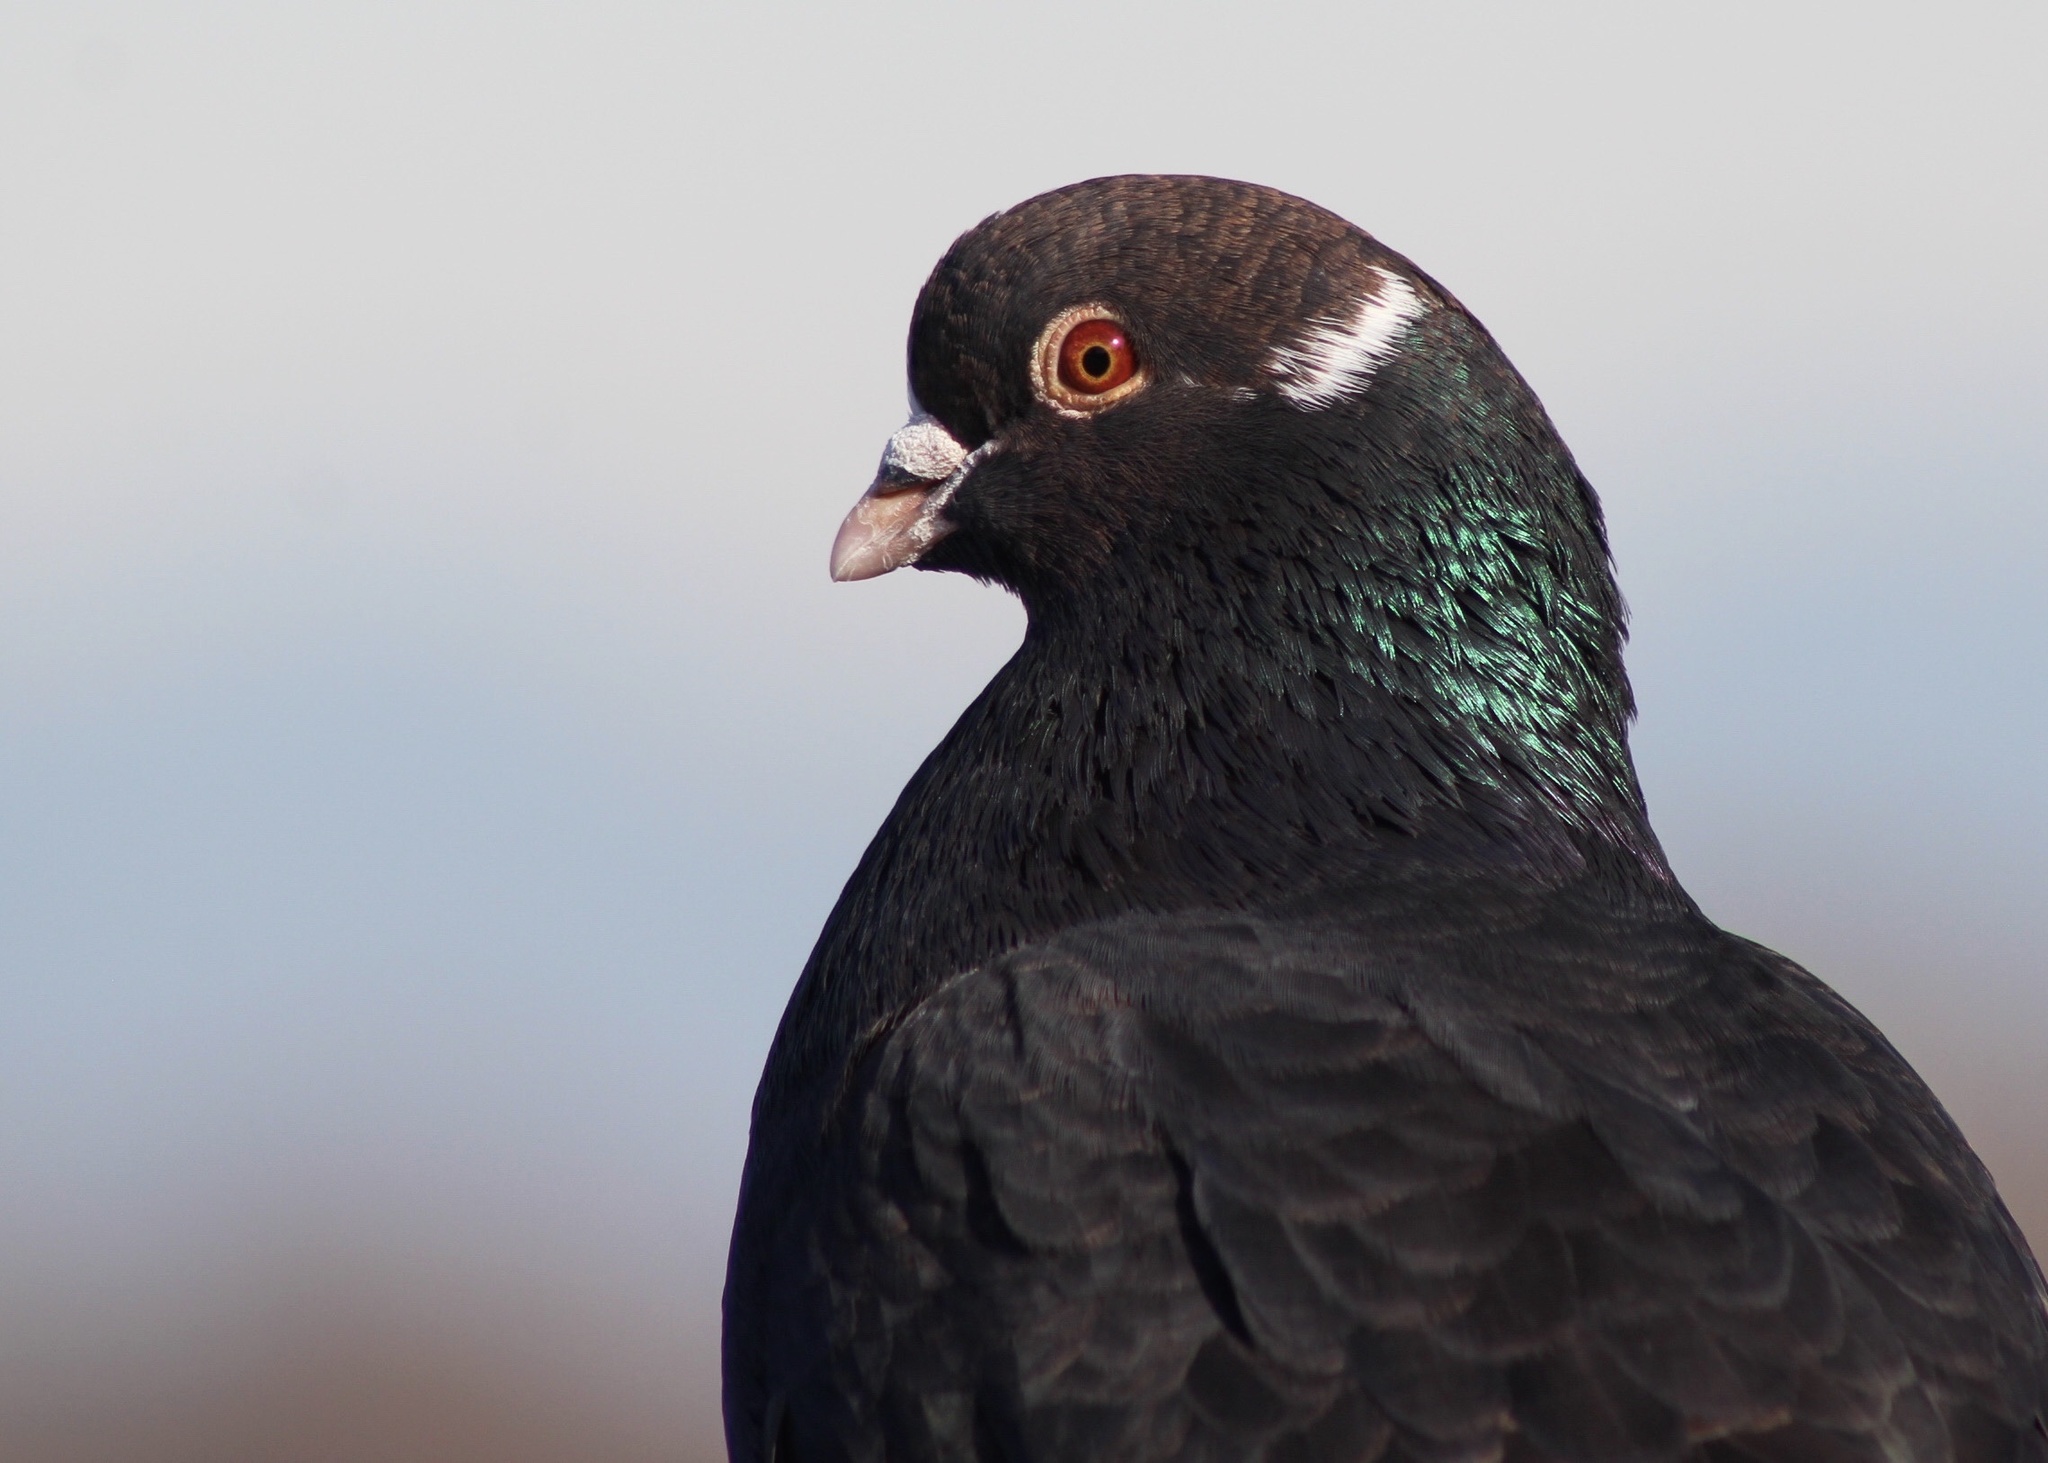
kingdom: Animalia
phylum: Chordata
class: Aves
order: Columbiformes
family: Columbidae
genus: Columba
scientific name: Columba livia
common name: Rock pigeon
